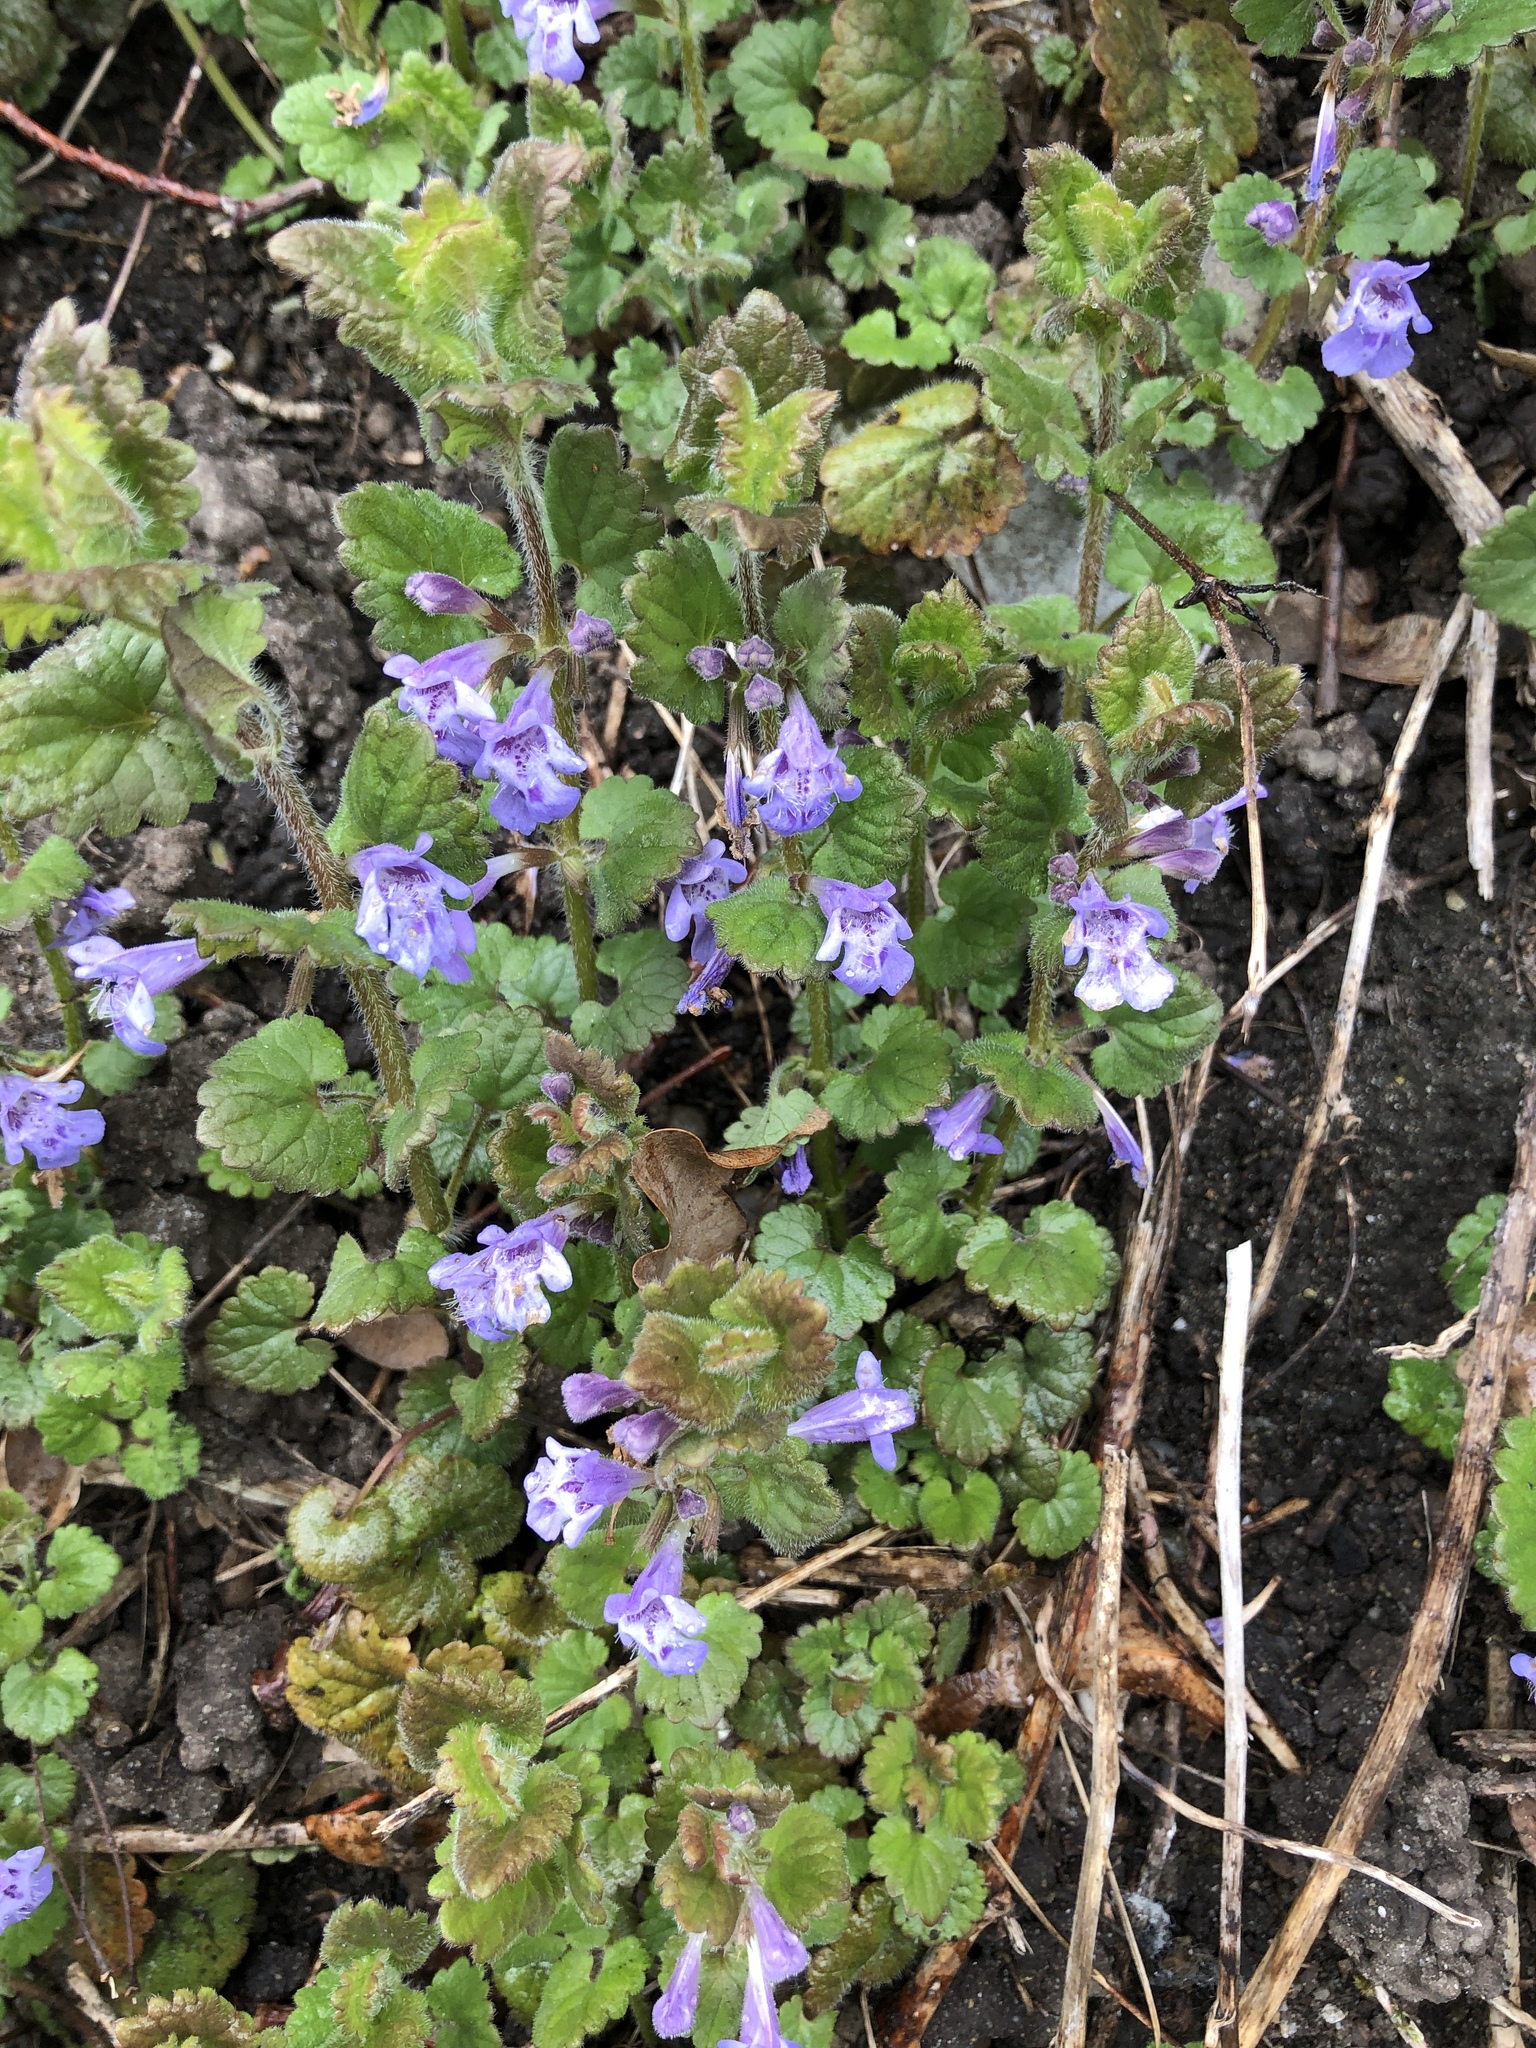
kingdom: Plantae
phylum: Tracheophyta
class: Magnoliopsida
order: Lamiales
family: Lamiaceae
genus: Glechoma
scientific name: Glechoma hederacea
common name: Ground ivy
